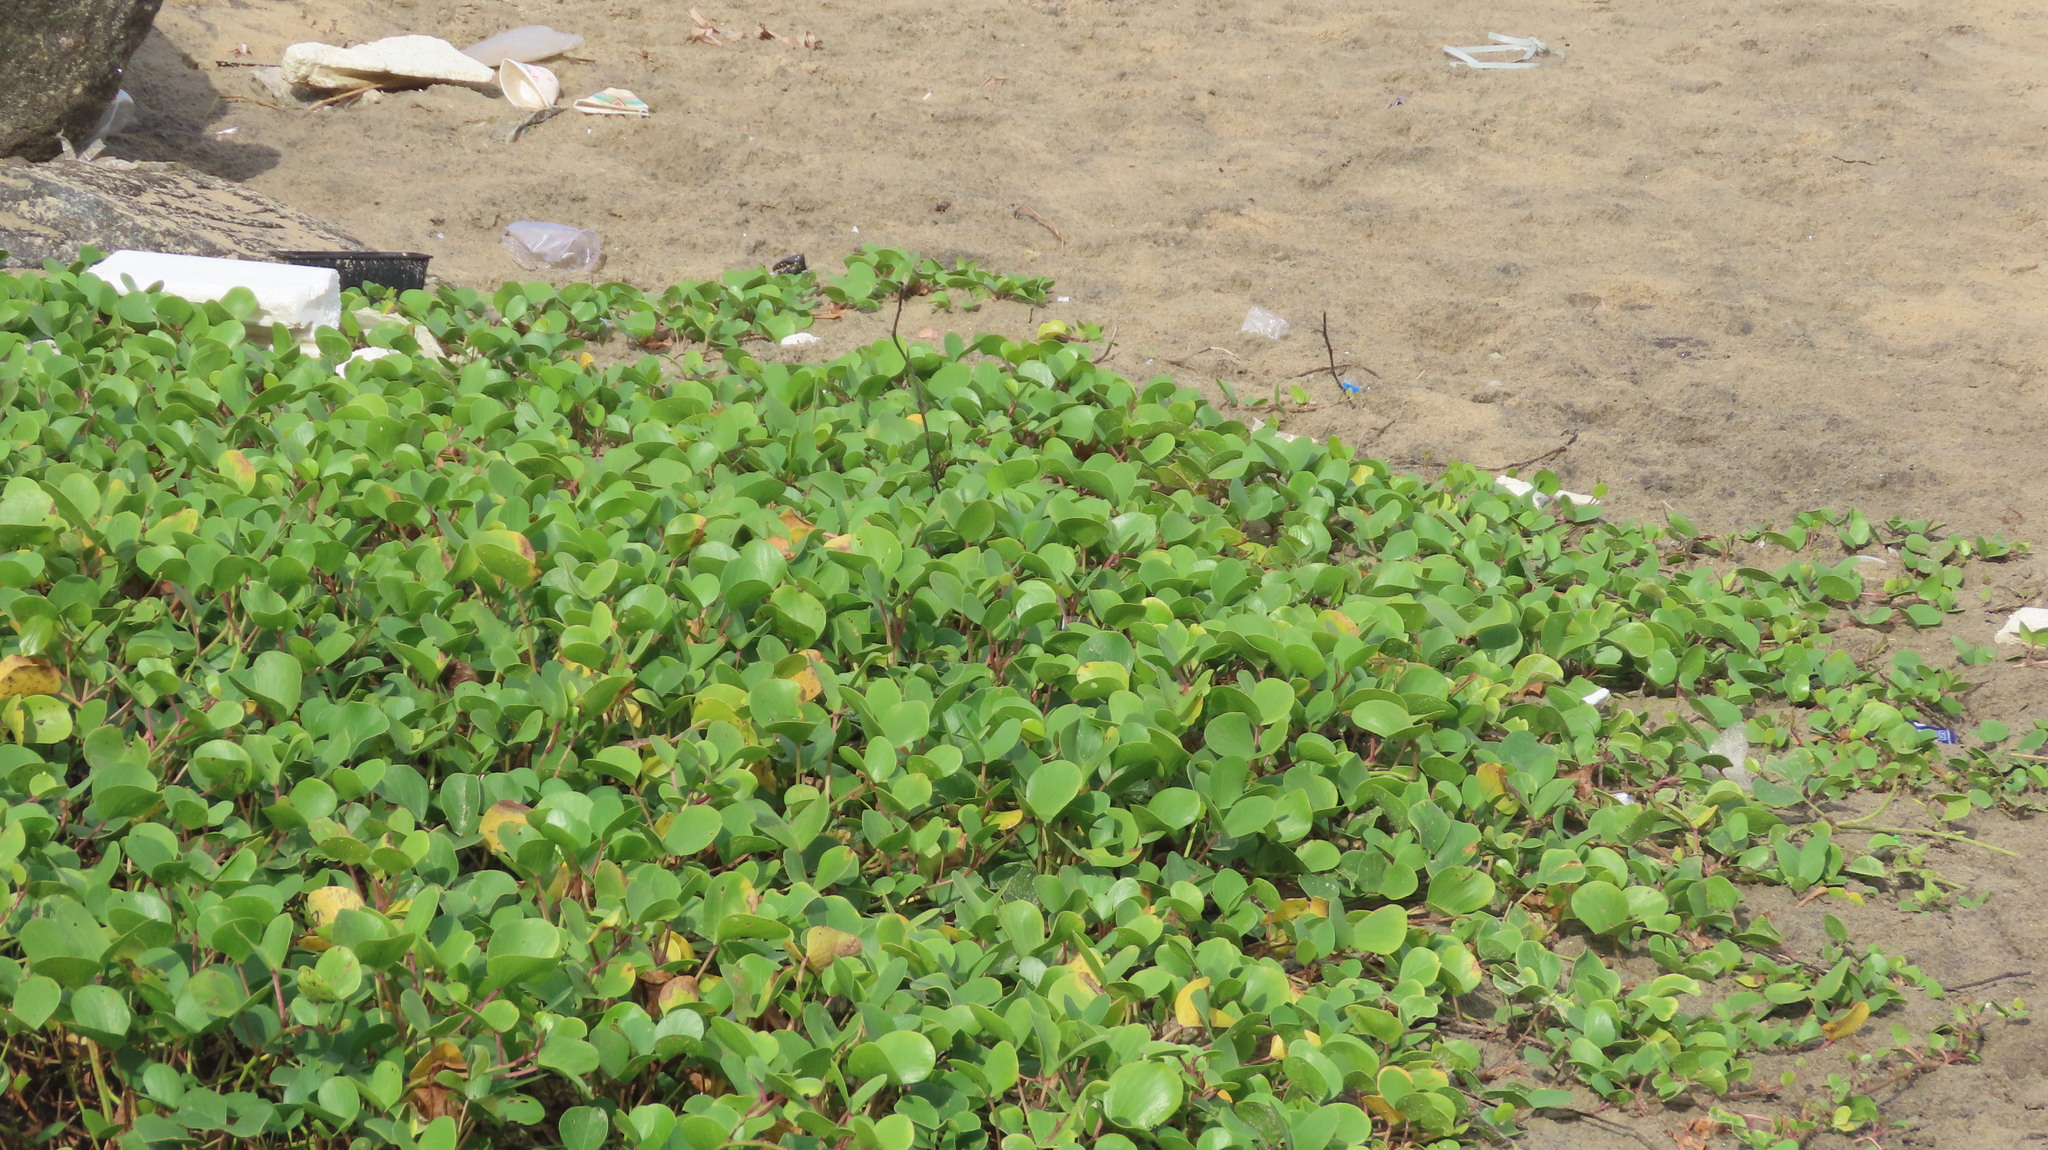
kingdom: Plantae
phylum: Tracheophyta
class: Magnoliopsida
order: Solanales
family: Convolvulaceae
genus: Ipomoea
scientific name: Ipomoea pes-caprae
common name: Beach morning glory
